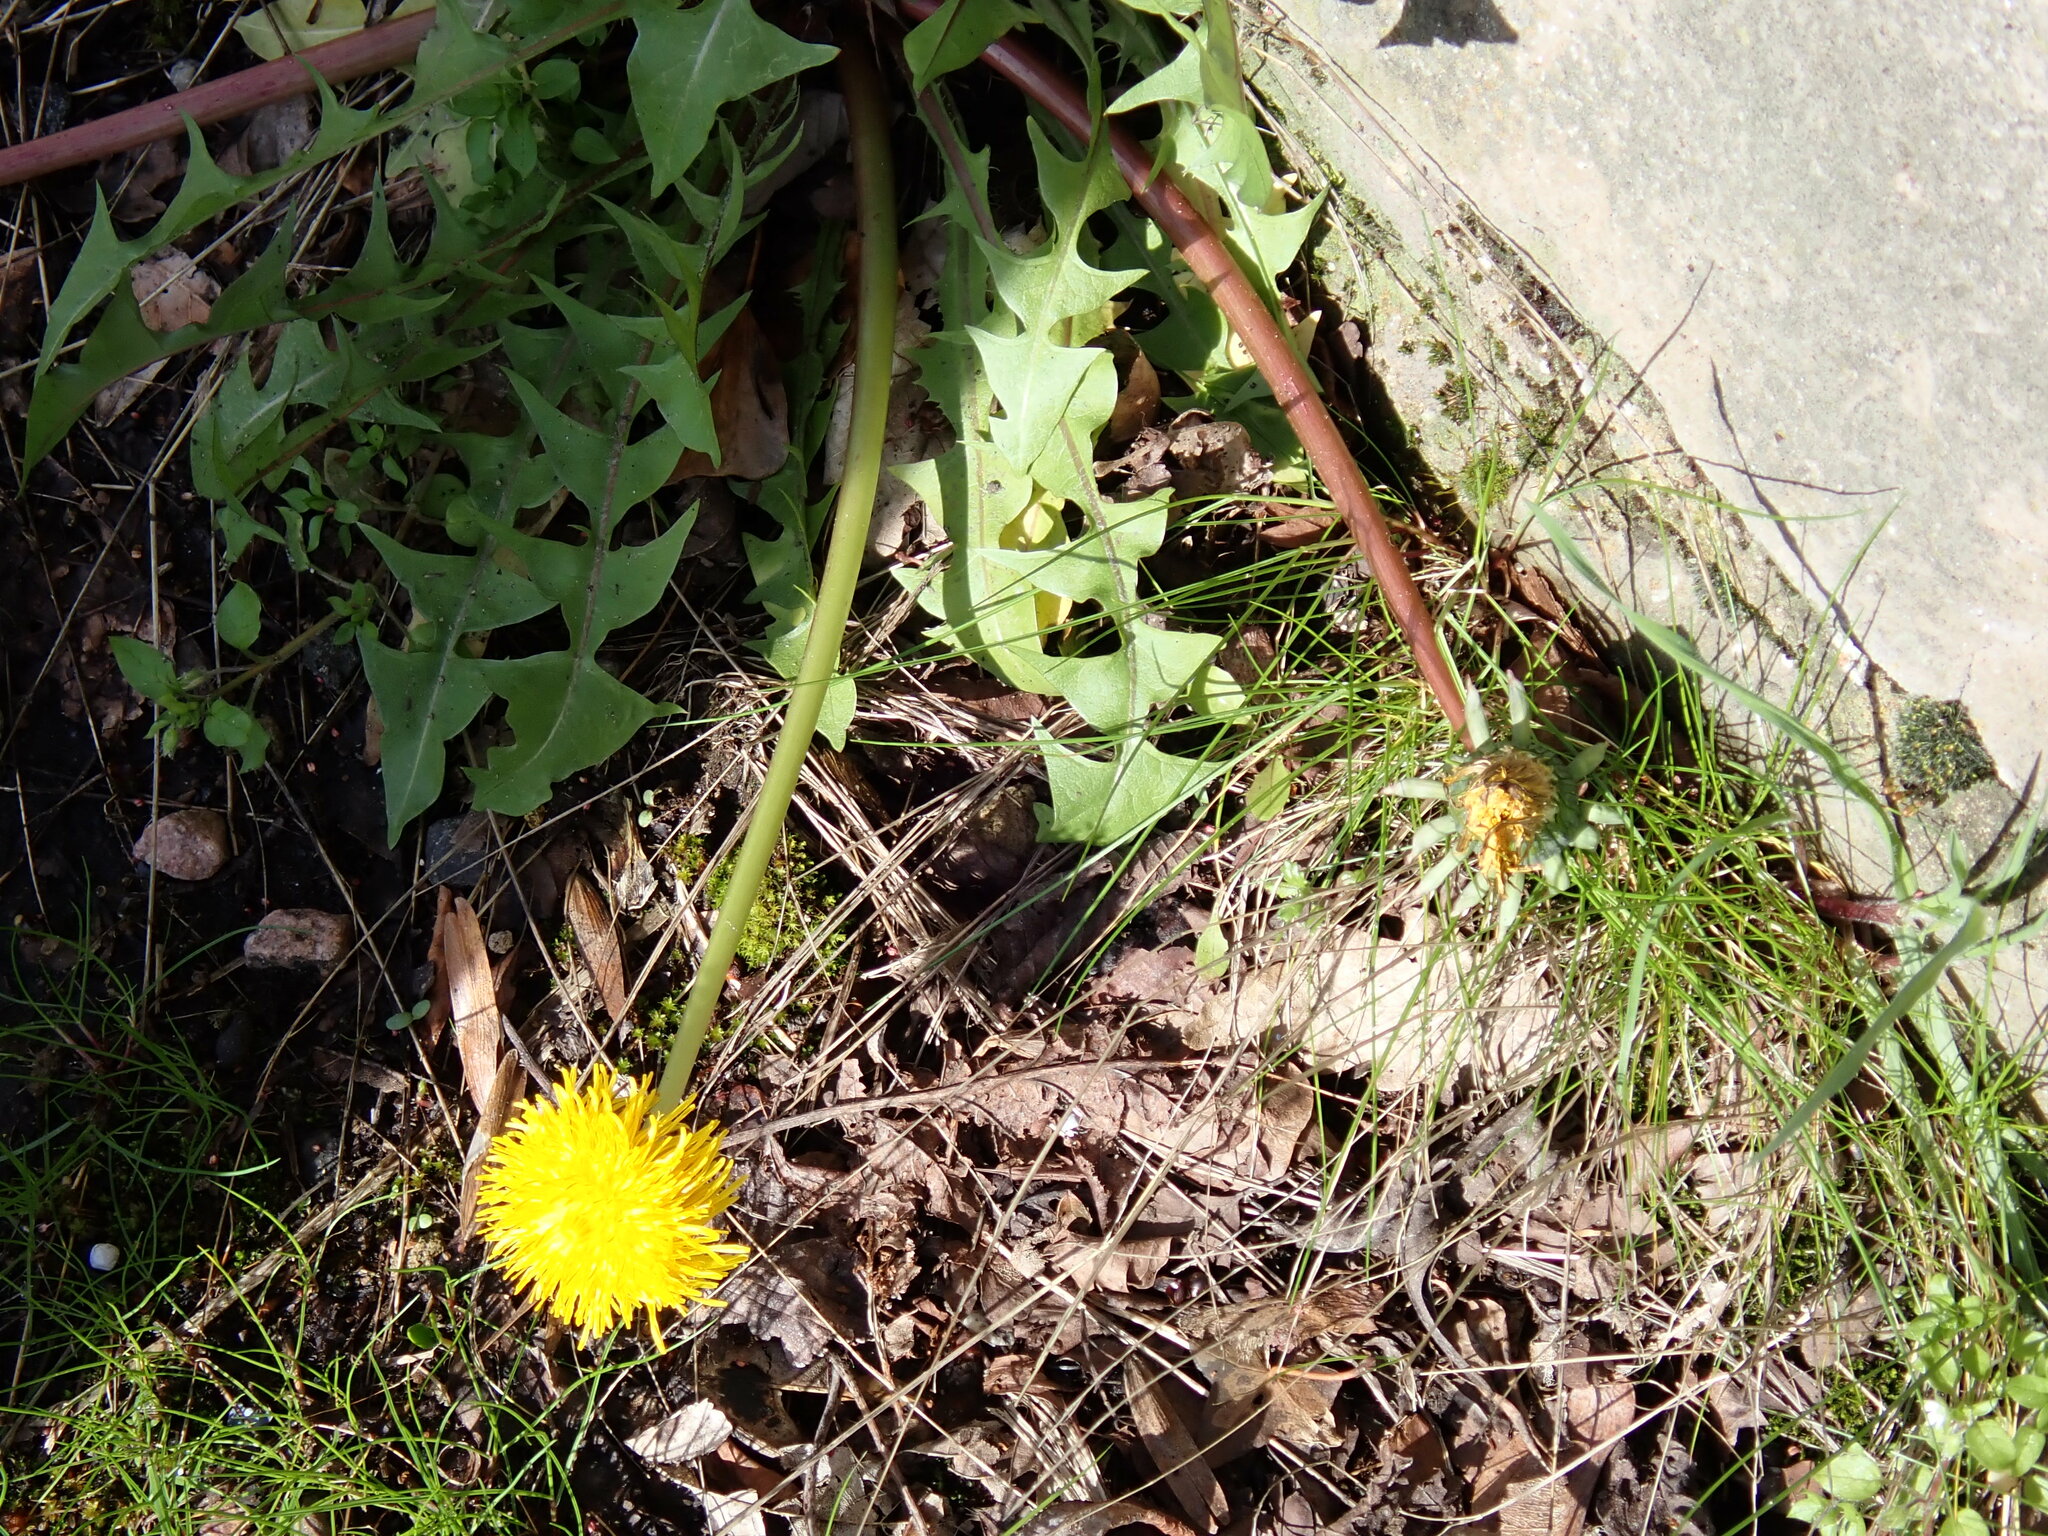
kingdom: Plantae
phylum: Tracheophyta
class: Magnoliopsida
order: Asterales
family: Asteraceae
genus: Taraxacum
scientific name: Taraxacum officinale
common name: Common dandelion
